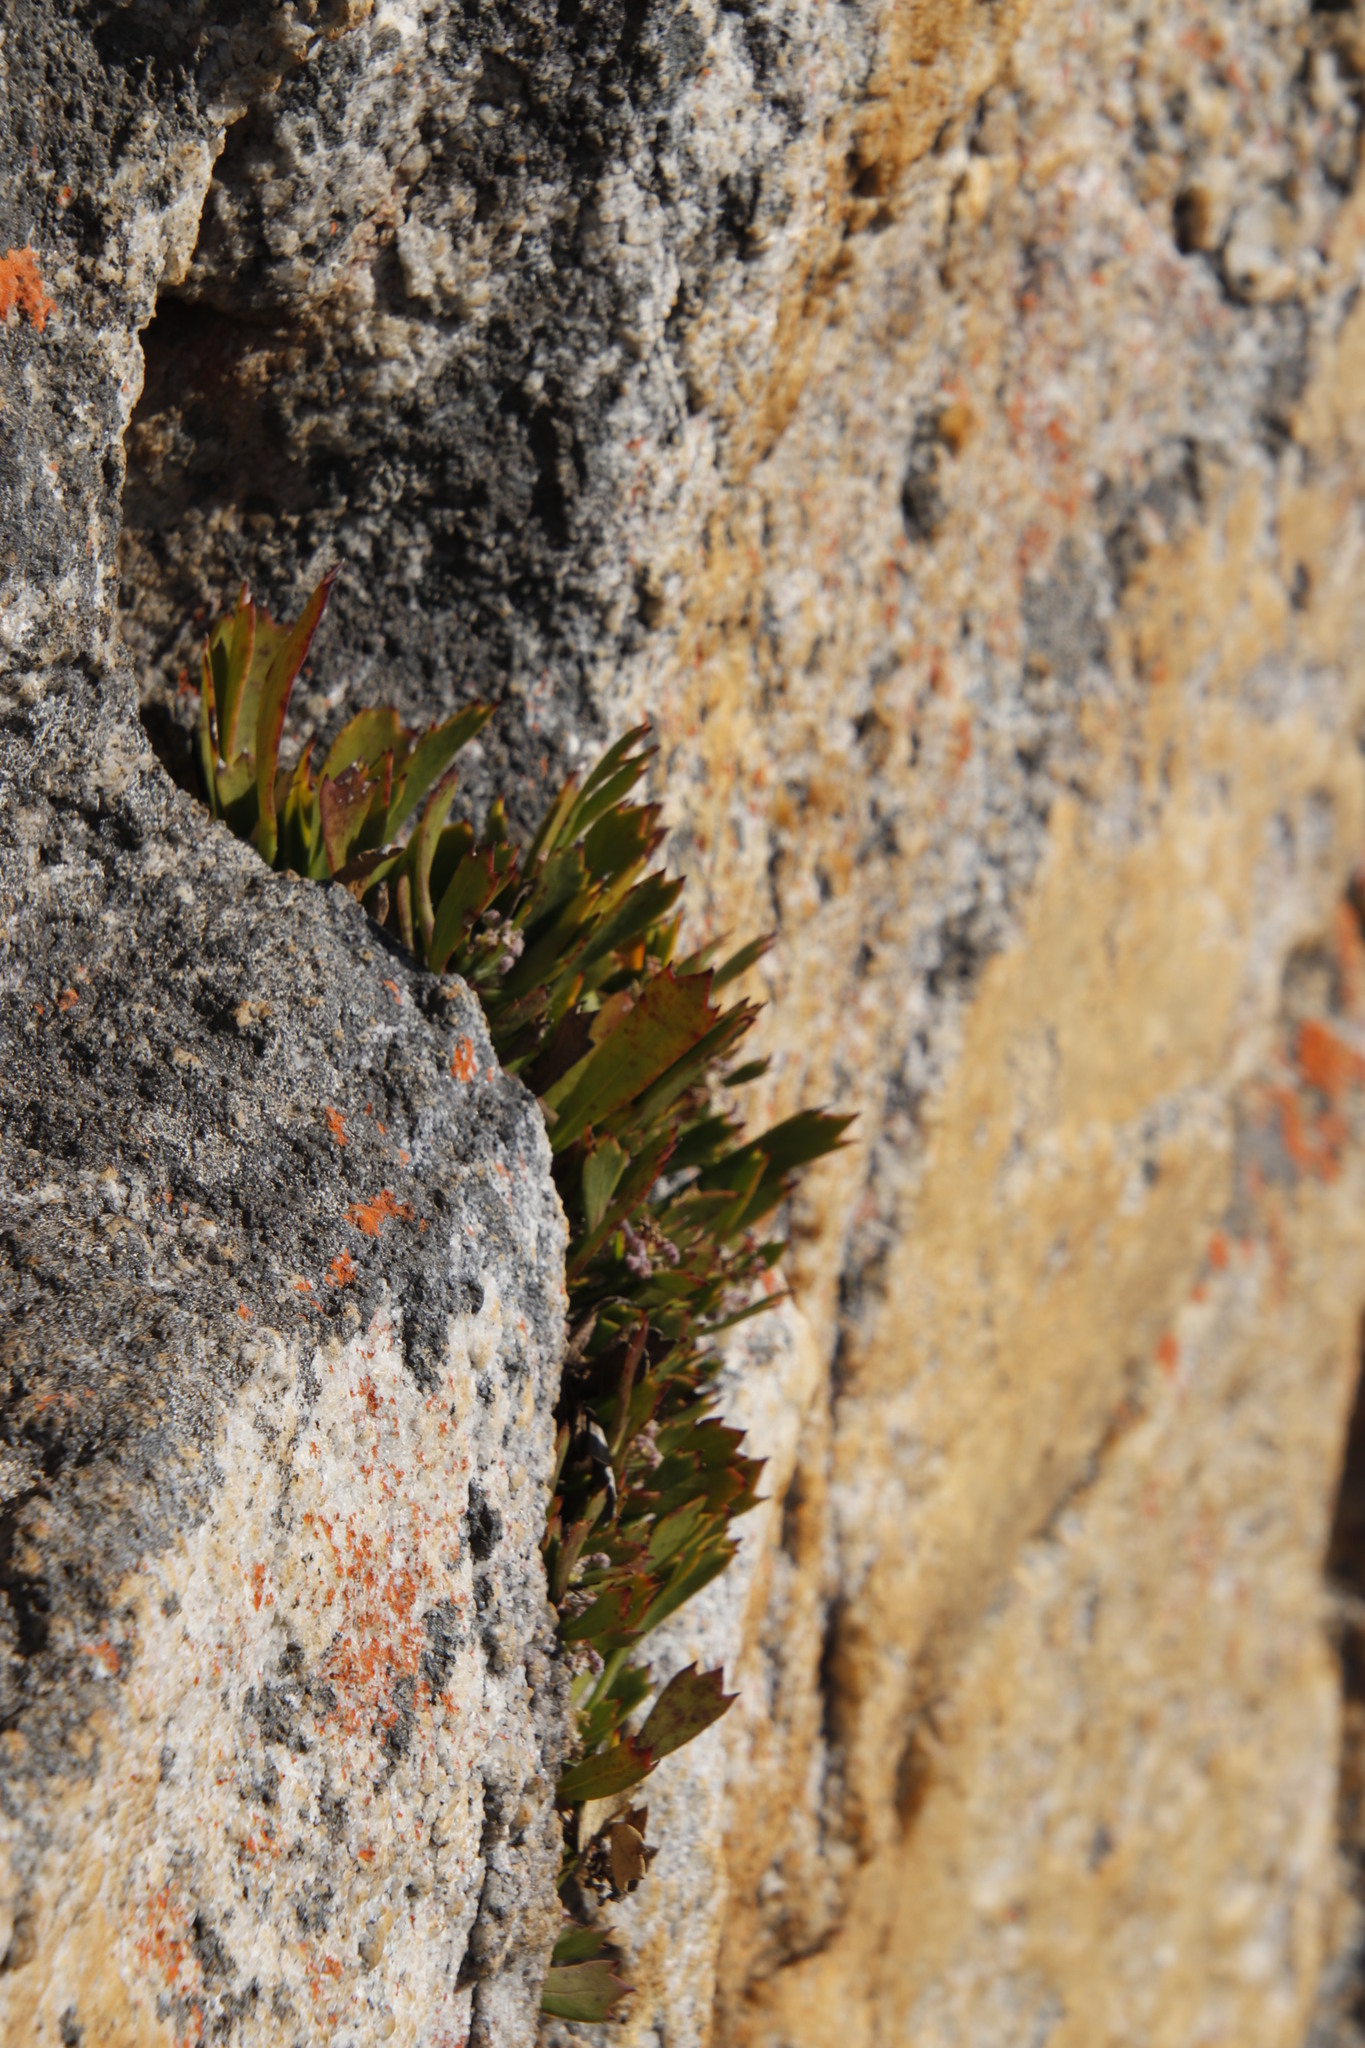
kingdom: Plantae
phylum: Tracheophyta
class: Magnoliopsida
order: Apiales
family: Apiaceae
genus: Centella
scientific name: Centella triloba
